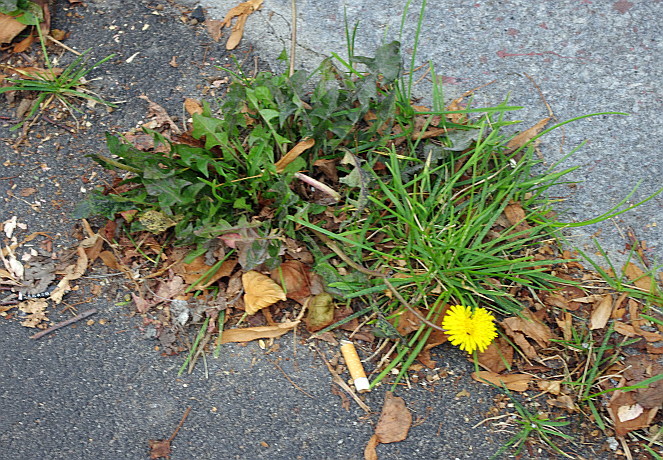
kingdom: Plantae
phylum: Tracheophyta
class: Magnoliopsida
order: Asterales
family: Asteraceae
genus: Taraxacum
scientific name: Taraxacum officinale
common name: Common dandelion
